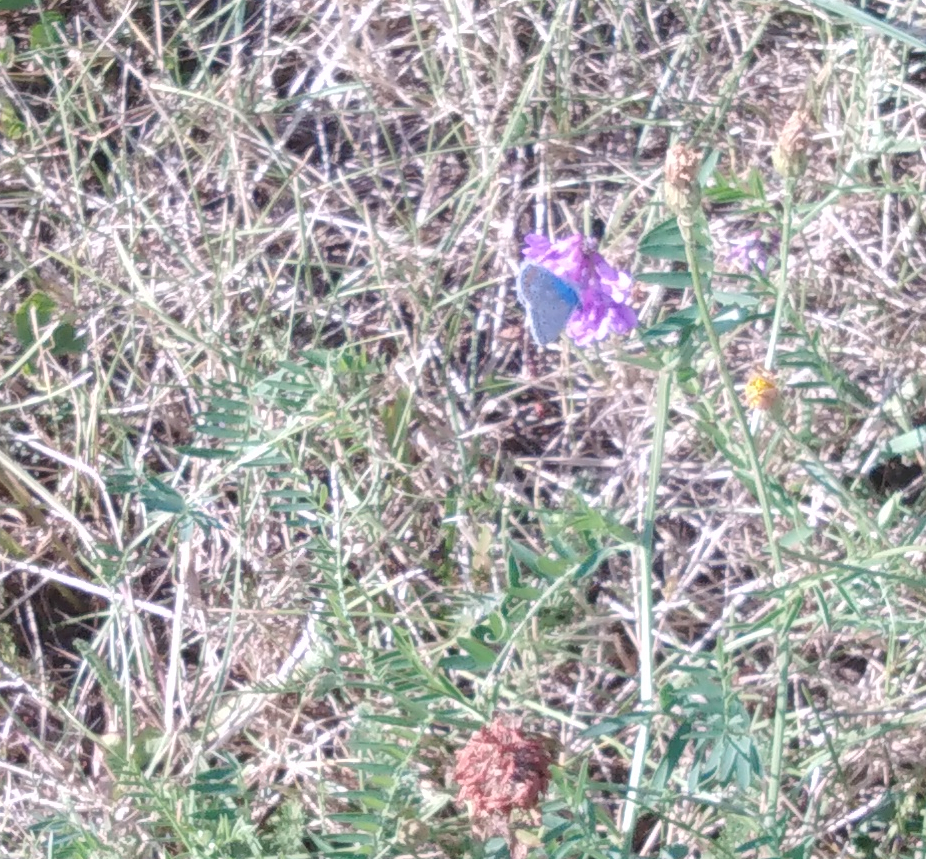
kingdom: Animalia
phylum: Arthropoda
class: Insecta
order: Lepidoptera
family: Lycaenidae
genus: Polyommatus
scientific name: Polyommatus icarus
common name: Common blue
